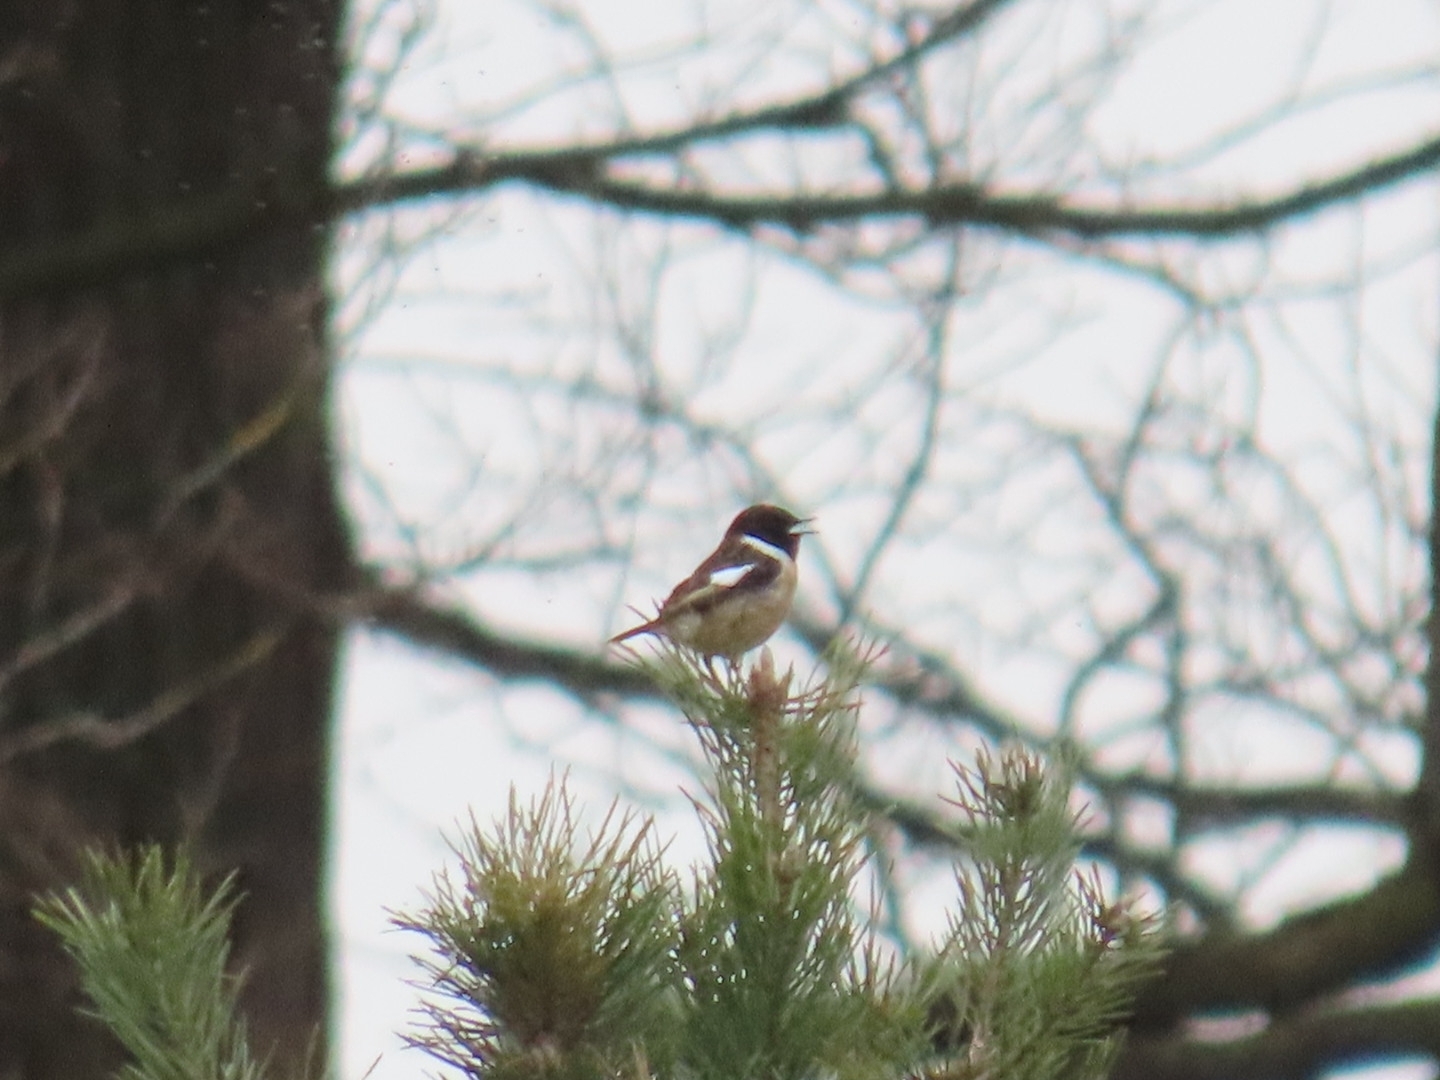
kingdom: Animalia
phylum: Chordata
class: Aves
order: Passeriformes
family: Muscicapidae
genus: Saxicola
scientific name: Saxicola rubicola
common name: European stonechat
